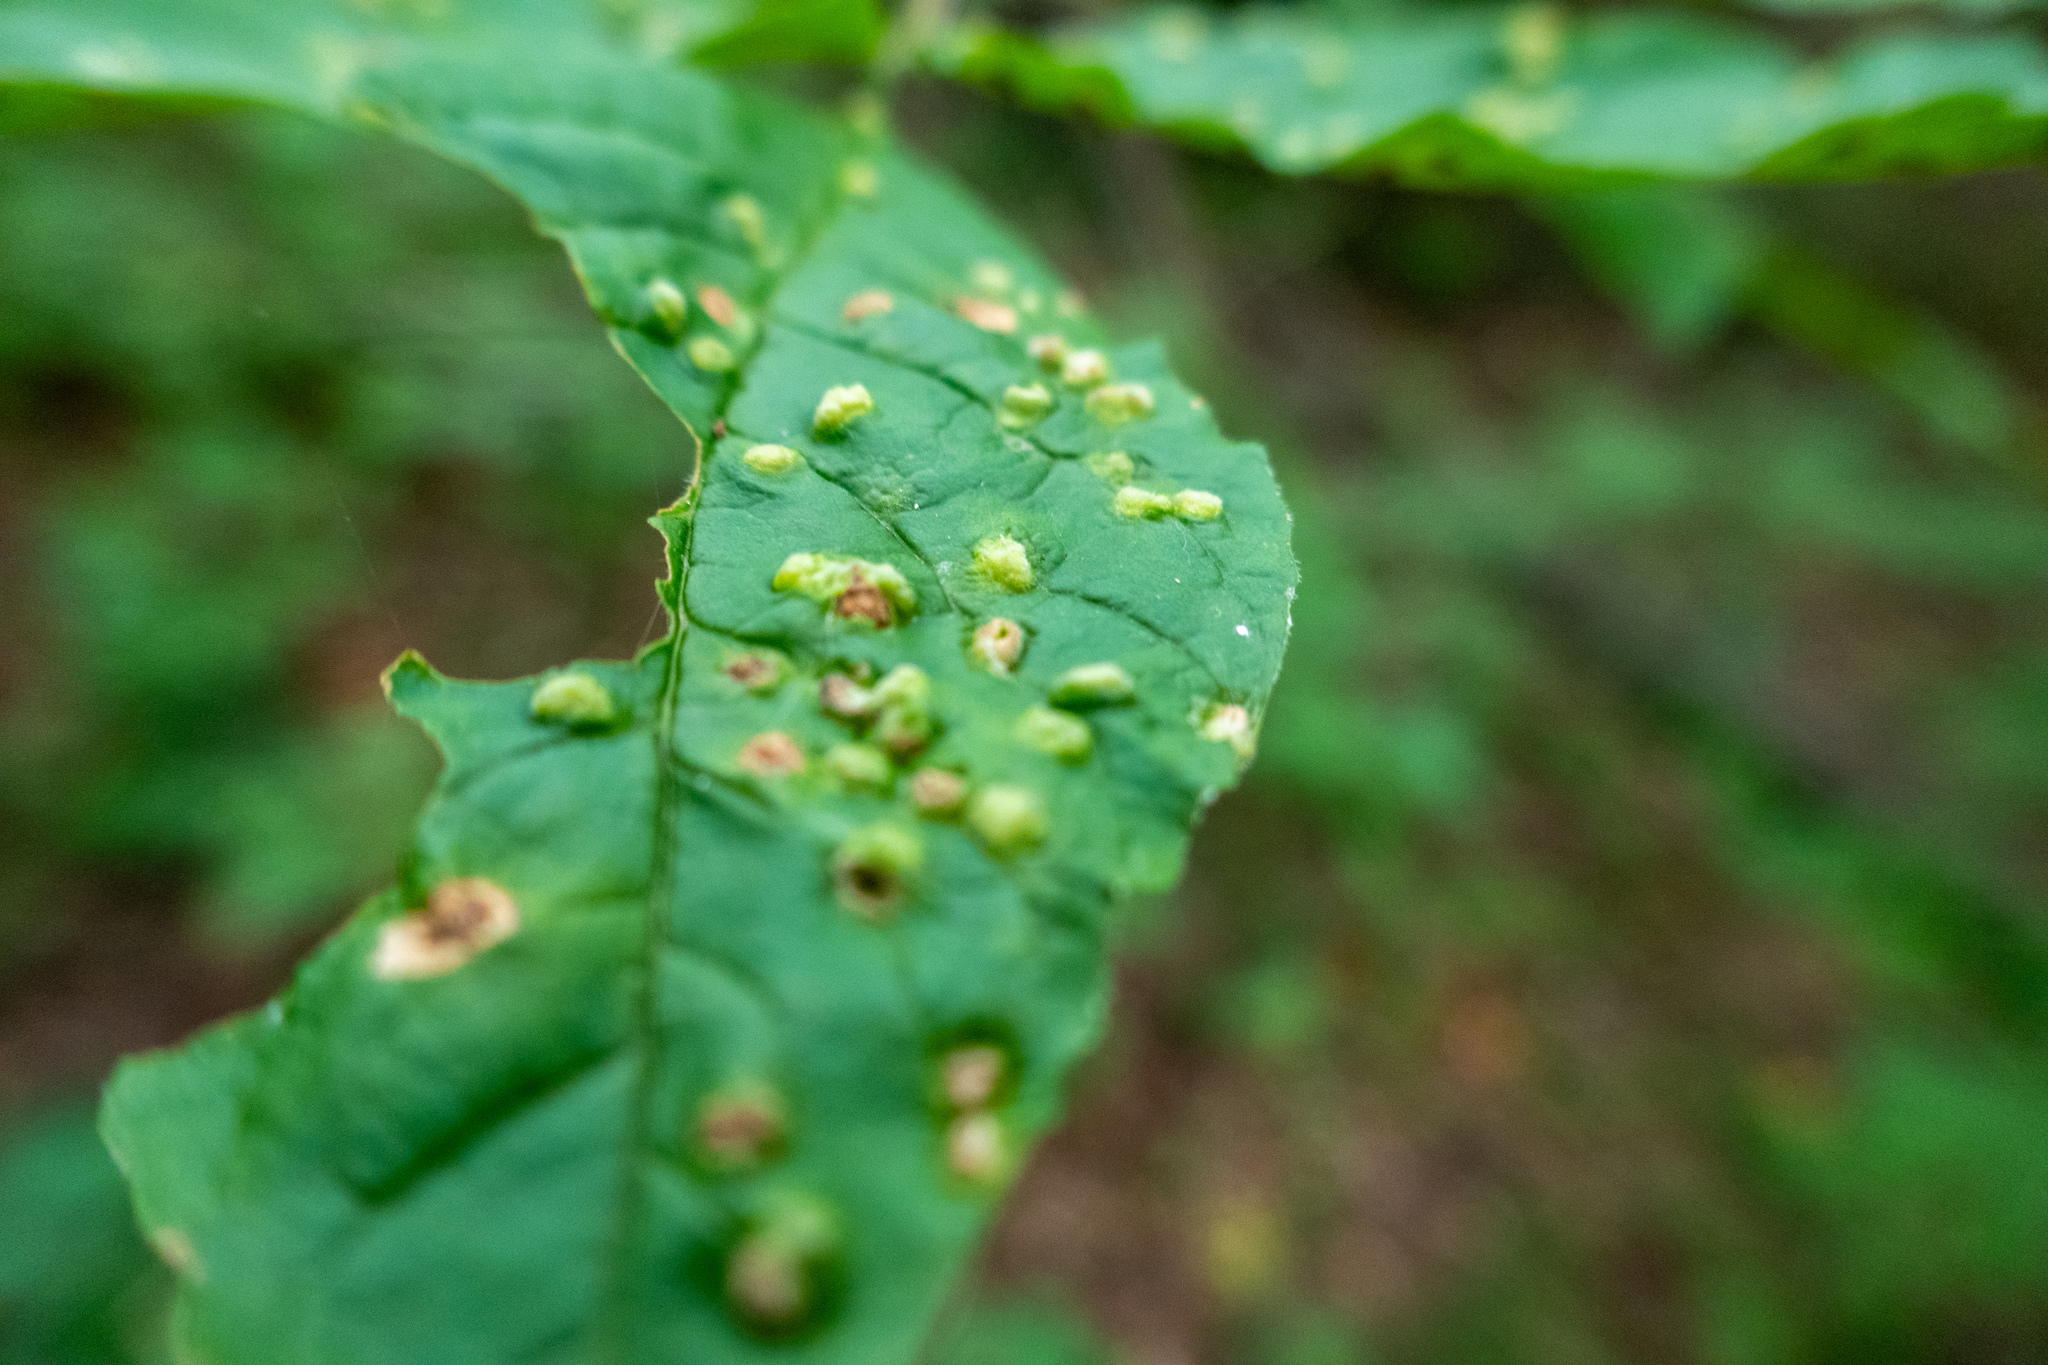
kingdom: Animalia
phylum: Arthropoda
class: Arachnida
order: Trombidiformes
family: Eriophyidae
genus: Aceria
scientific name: Aceria fraxinicola
